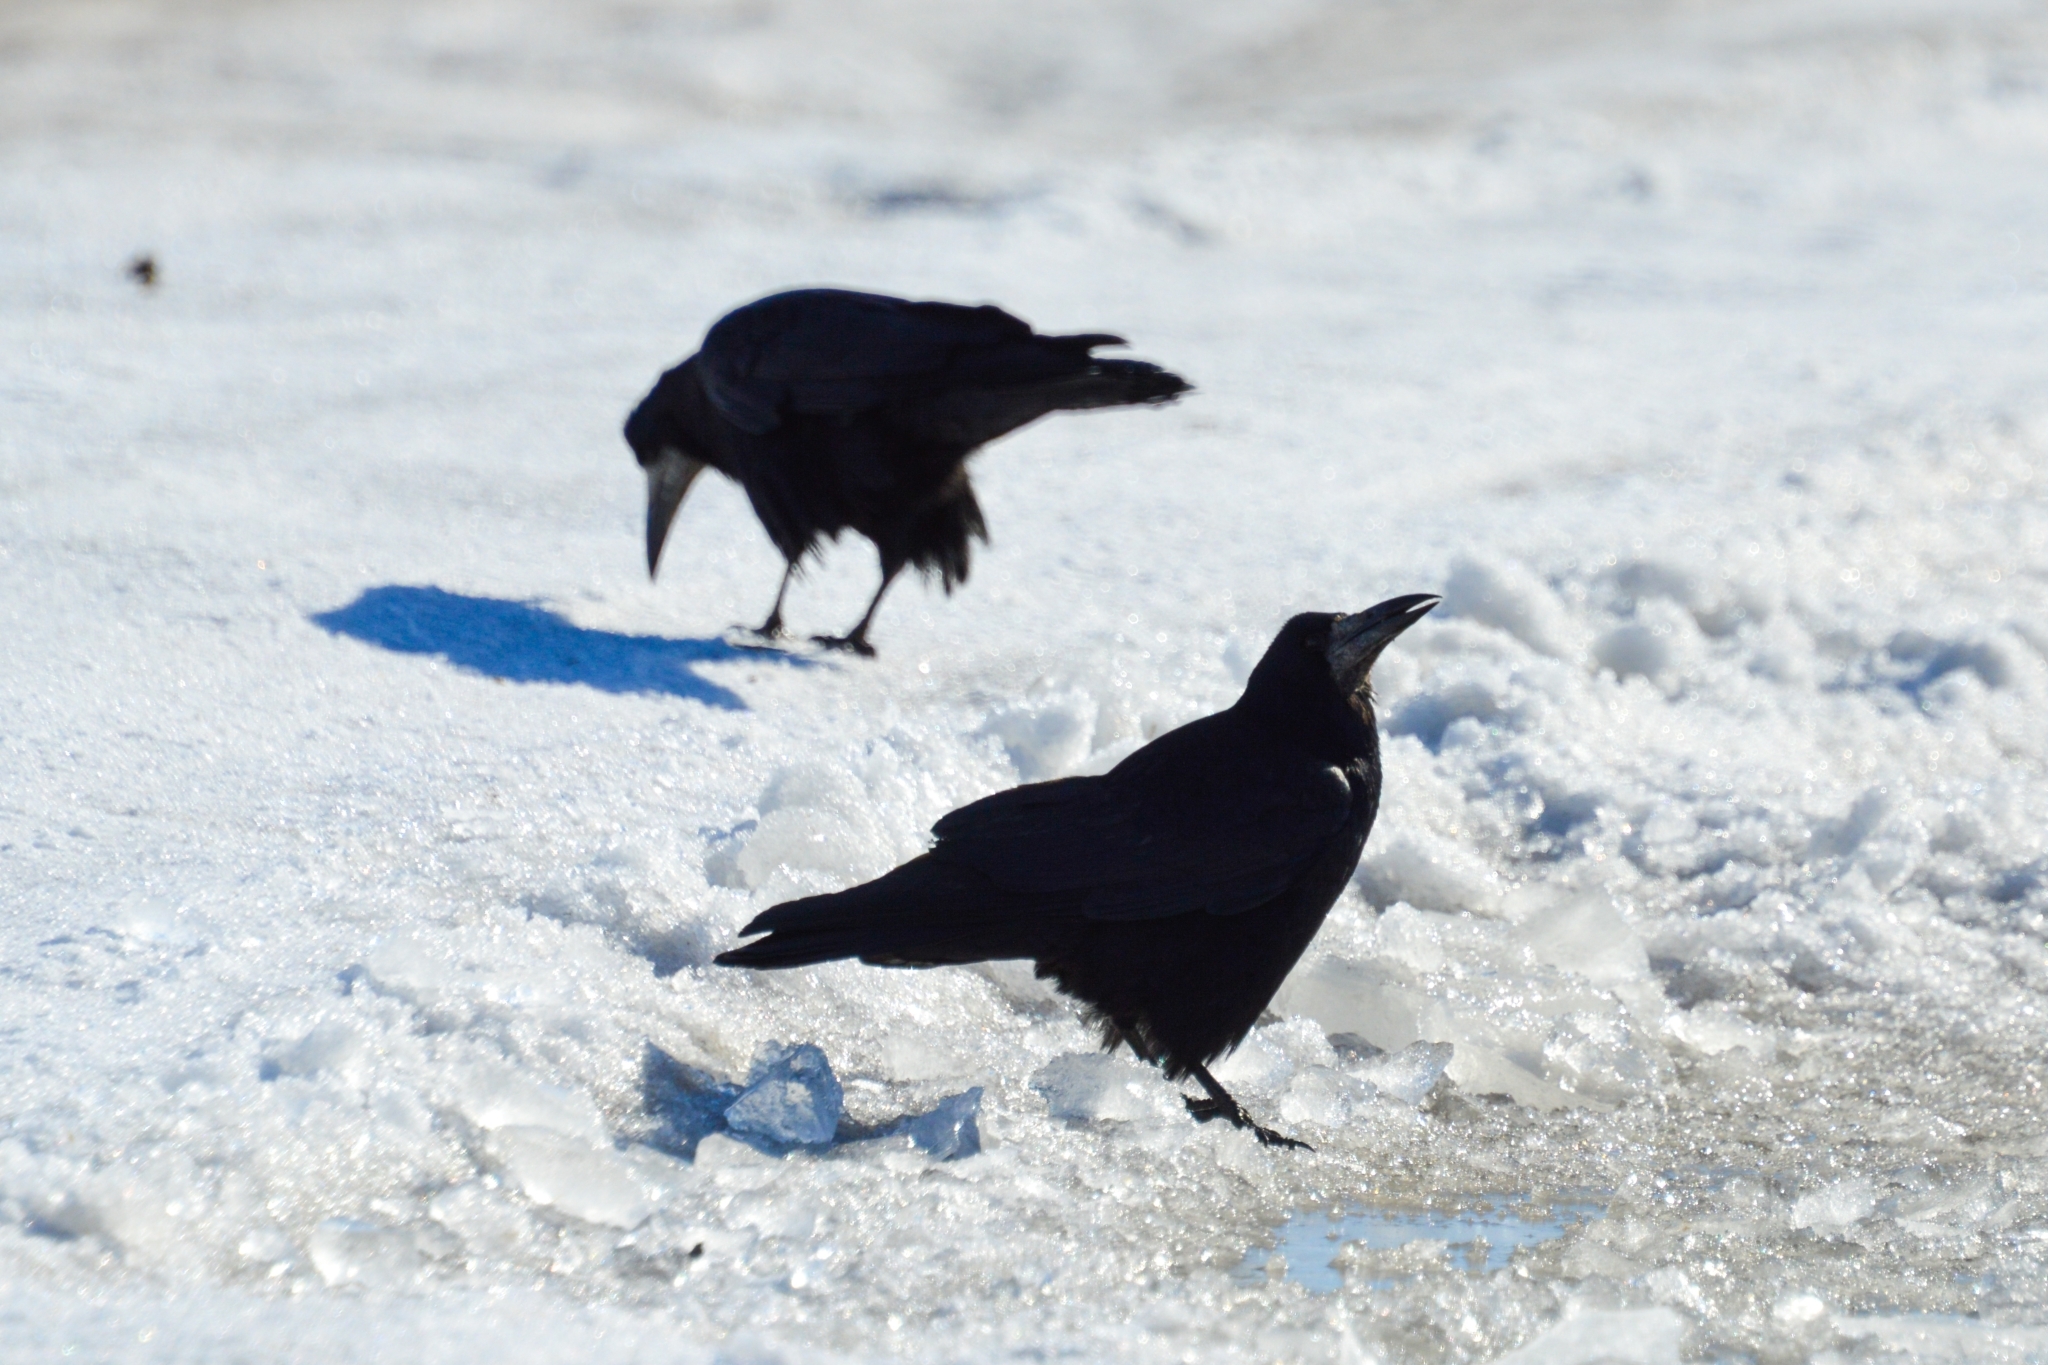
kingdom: Animalia
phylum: Chordata
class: Aves
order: Passeriformes
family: Corvidae
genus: Corvus
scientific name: Corvus frugilegus
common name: Rook
